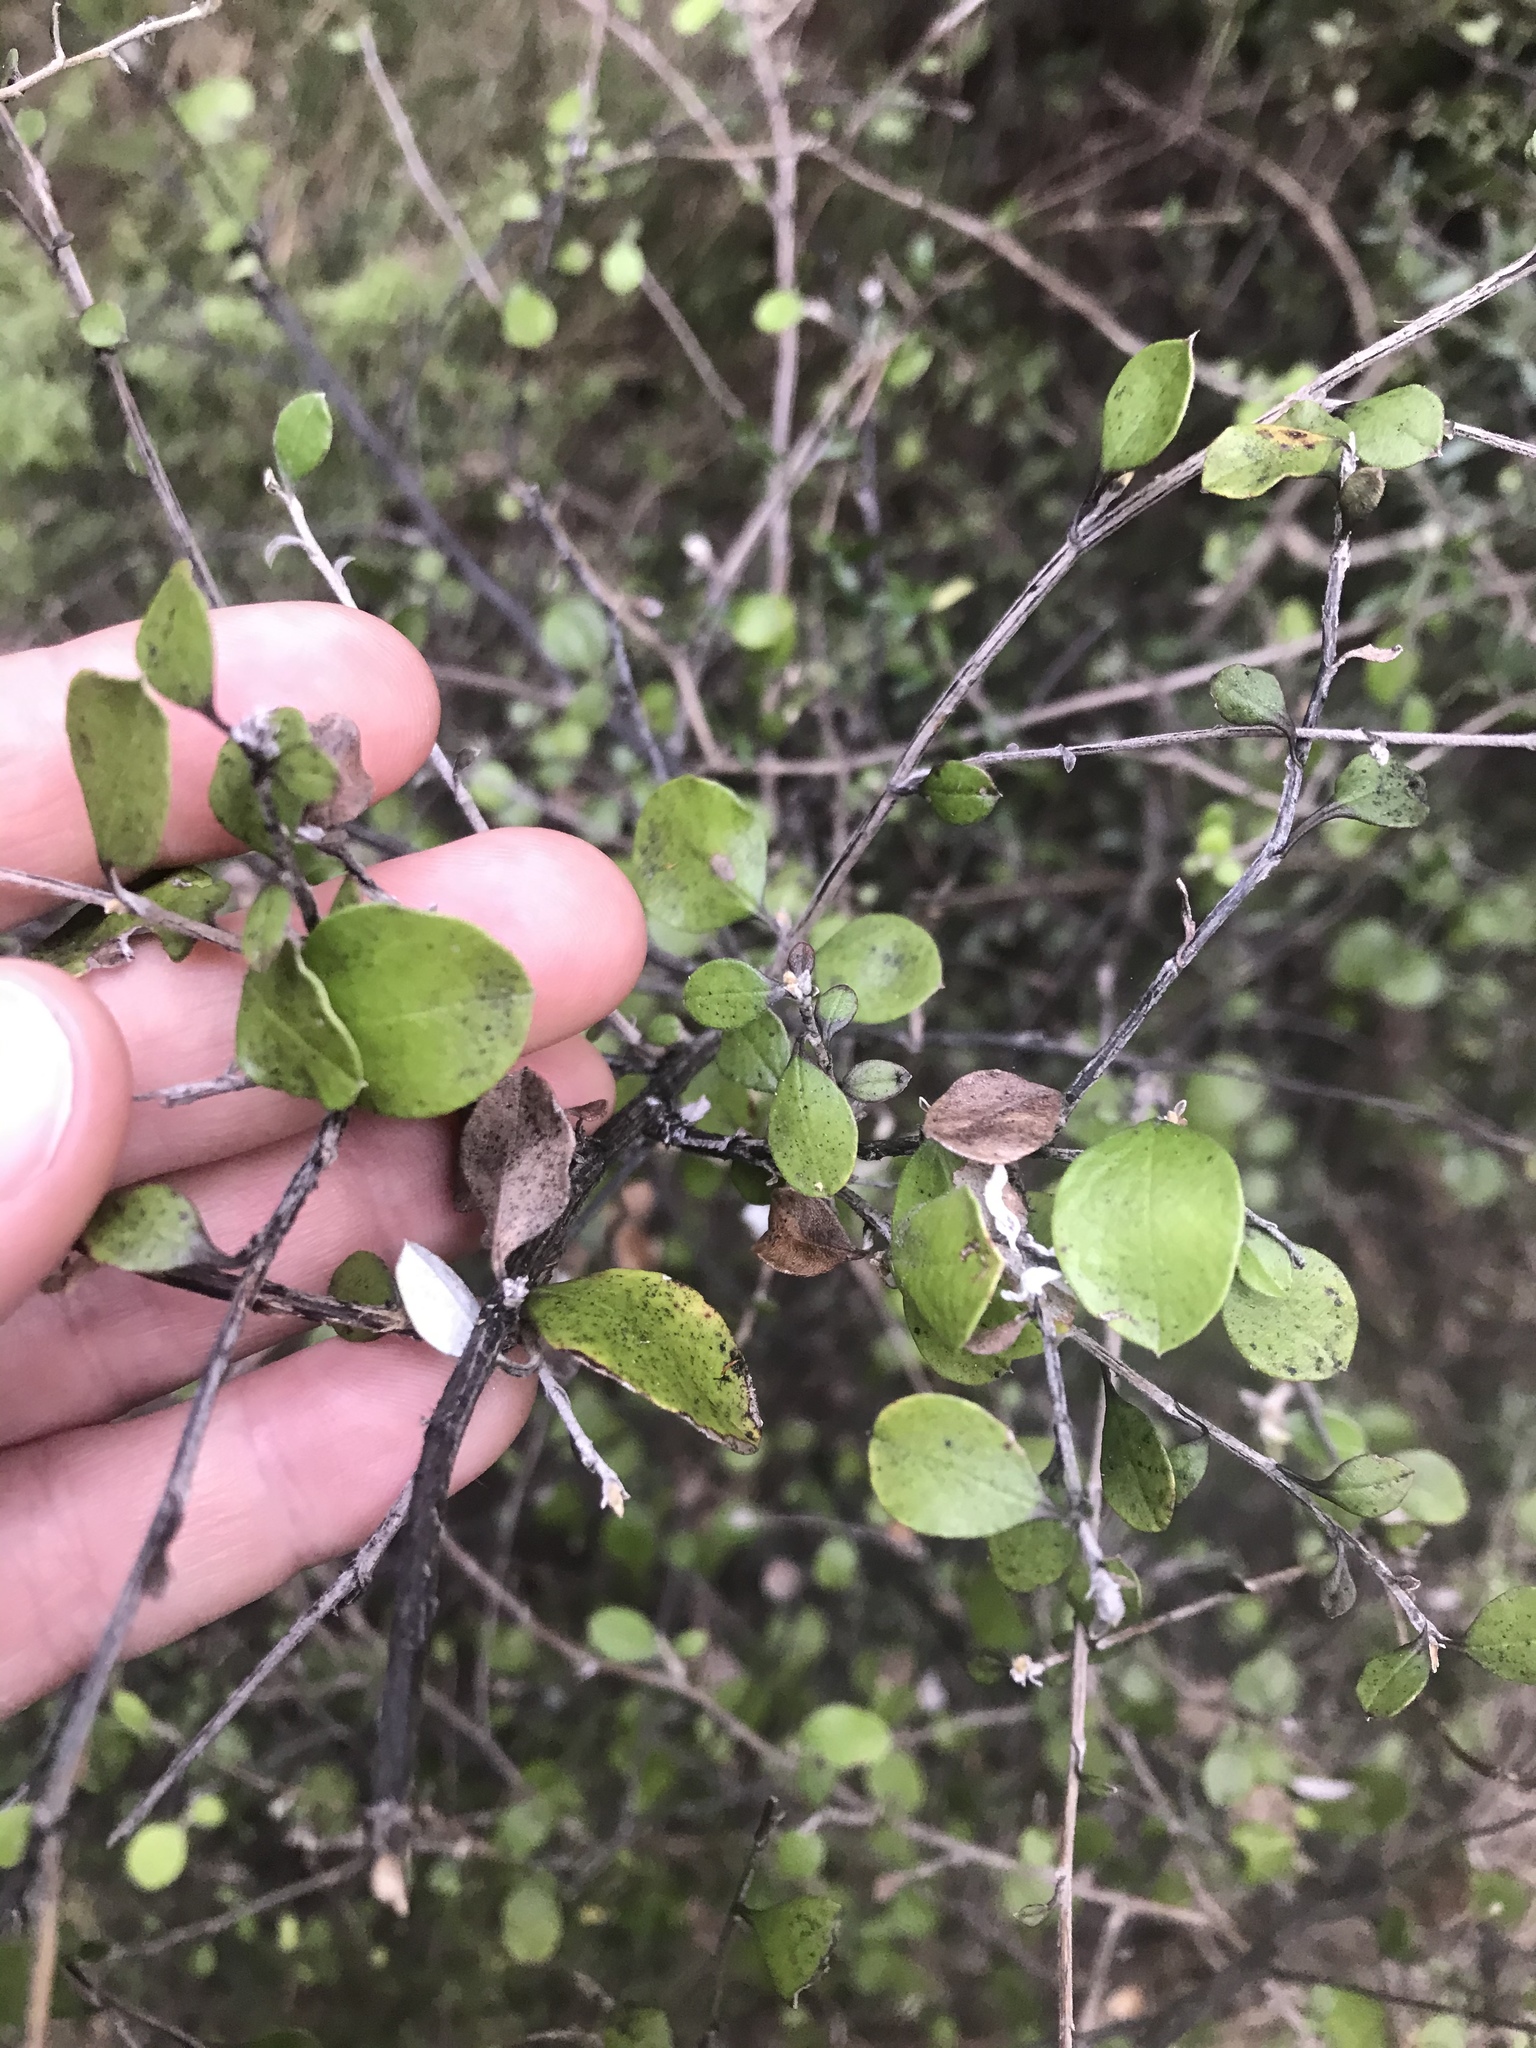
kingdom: Plantae
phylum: Tracheophyta
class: Magnoliopsida
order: Asterales
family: Asteraceae
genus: Ozothamnus
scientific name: Ozothamnus glomeratus
